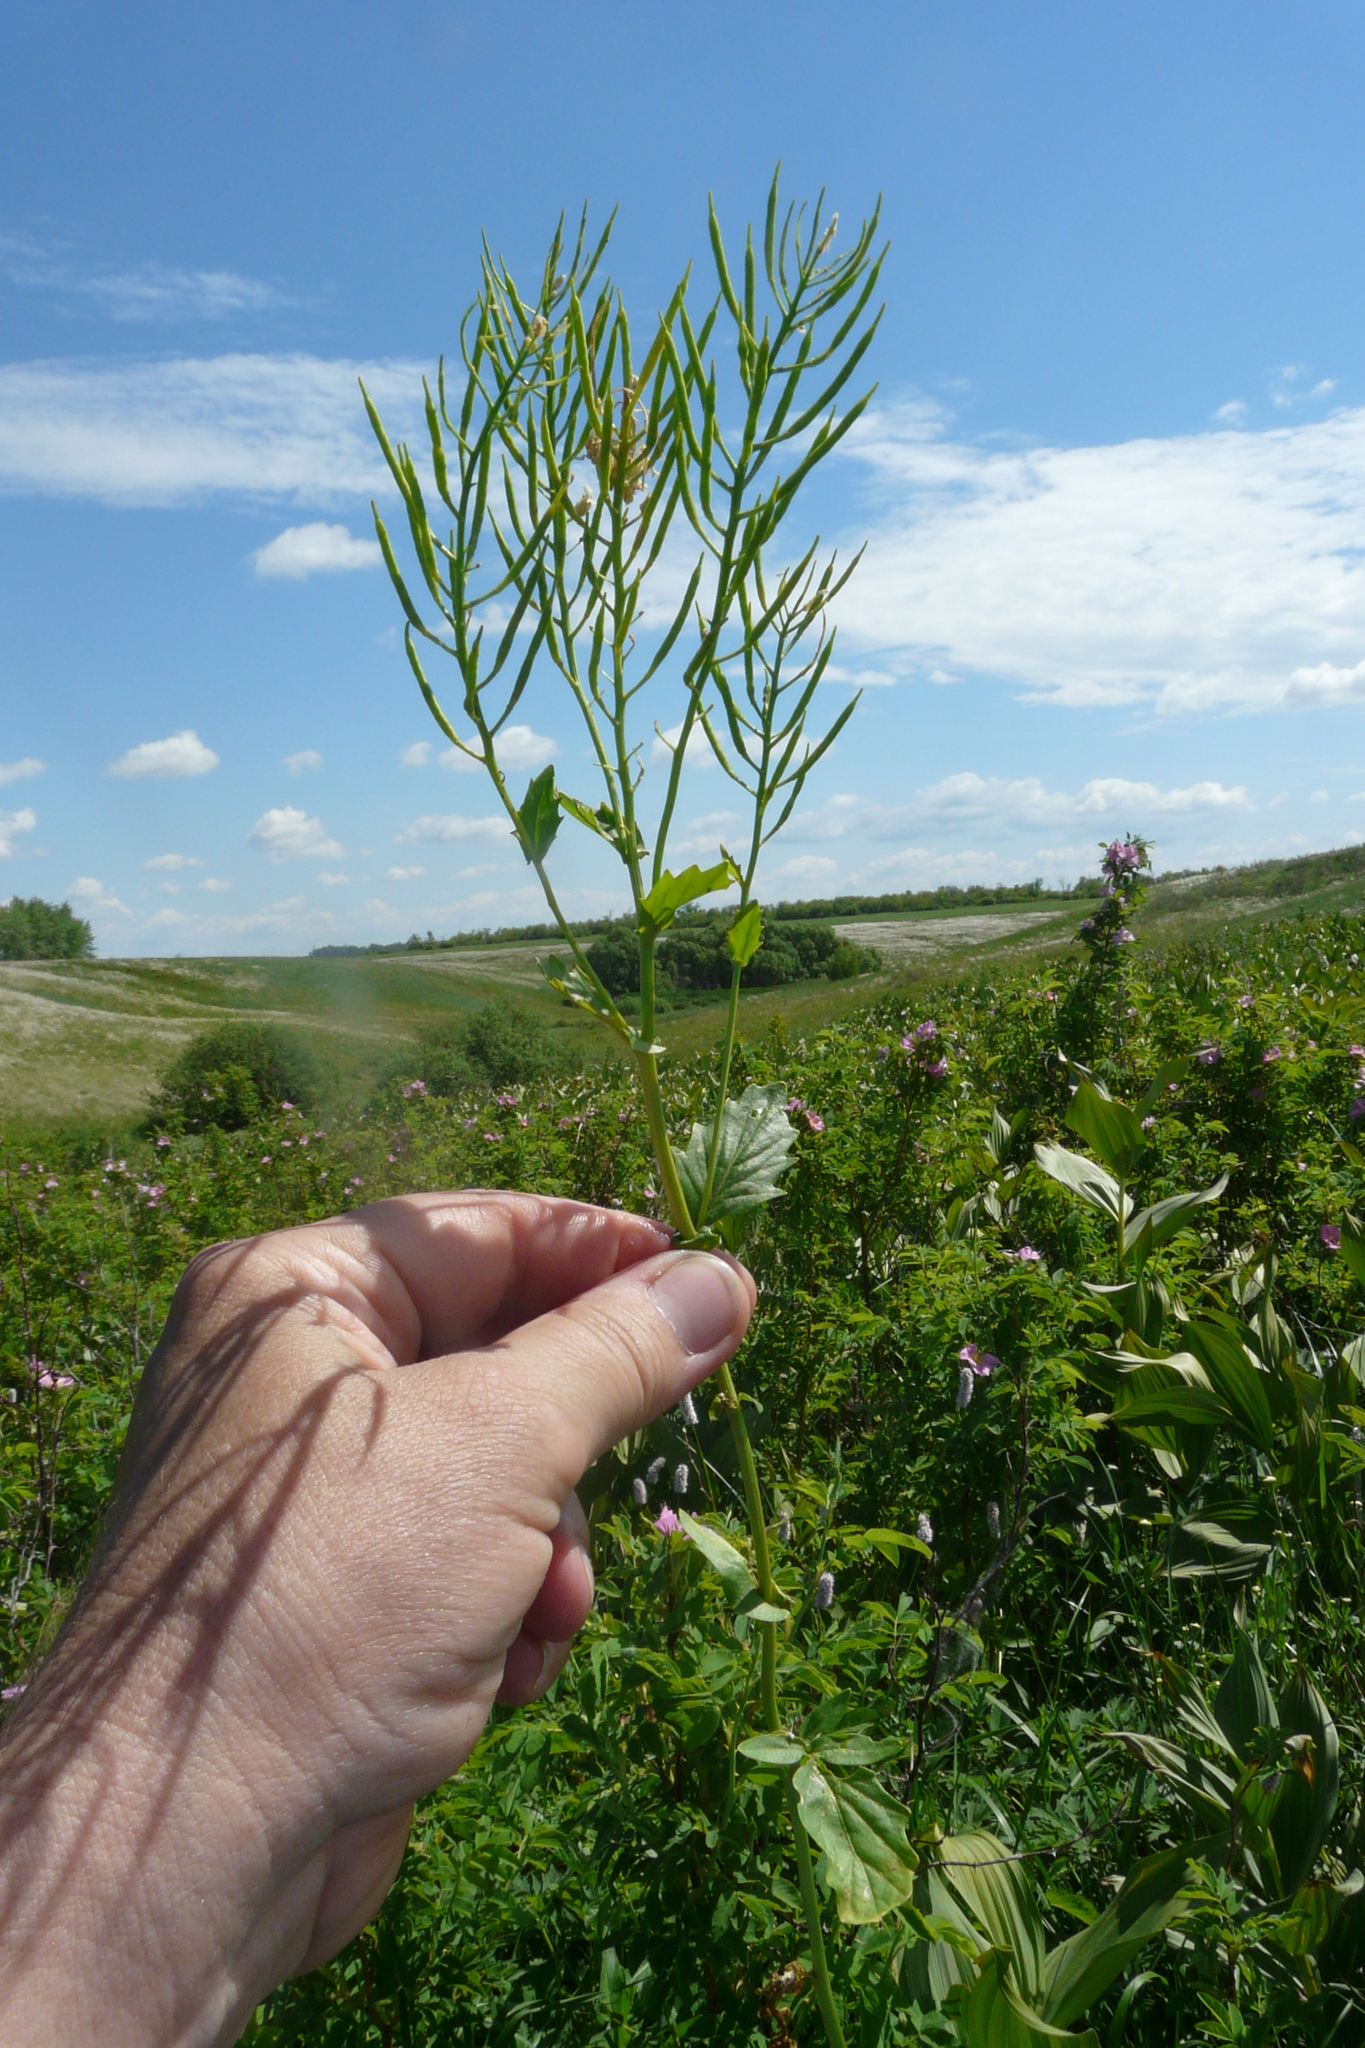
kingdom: Plantae
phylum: Tracheophyta
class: Magnoliopsida
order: Brassicales
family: Brassicaceae
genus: Barbarea
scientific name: Barbarea vulgaris
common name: Cressy-greens
